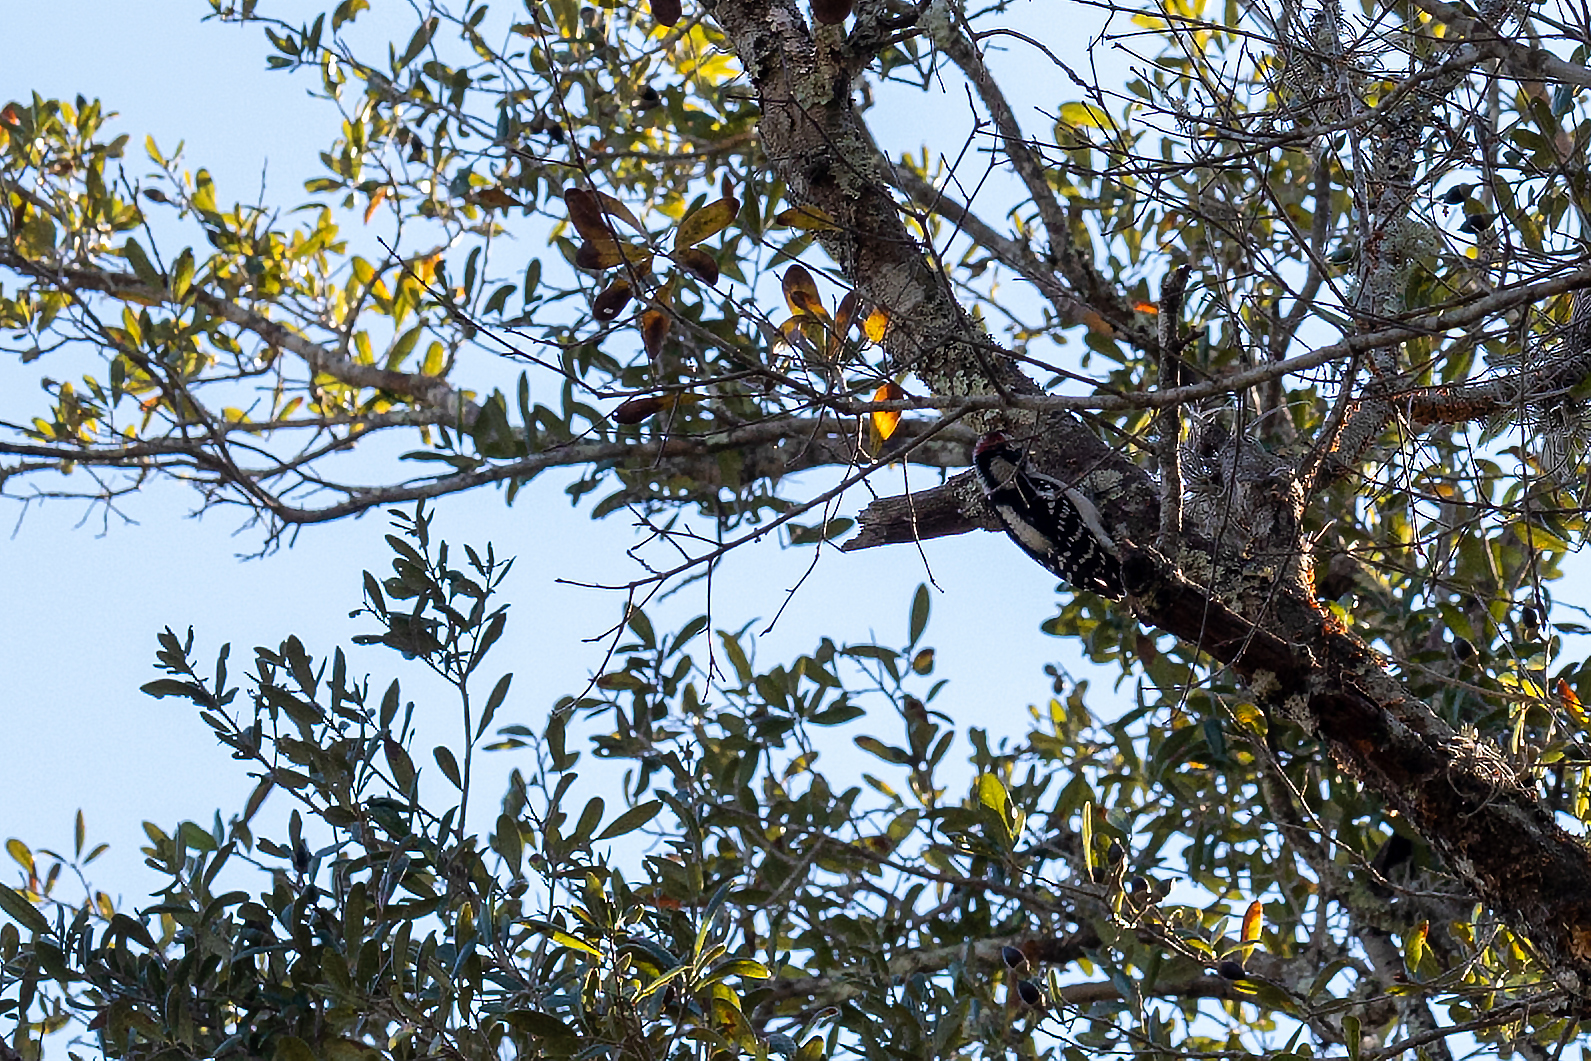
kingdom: Animalia
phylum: Chordata
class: Aves
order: Piciformes
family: Picidae
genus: Dryobates
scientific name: Dryobates pubescens
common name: Downy woodpecker
